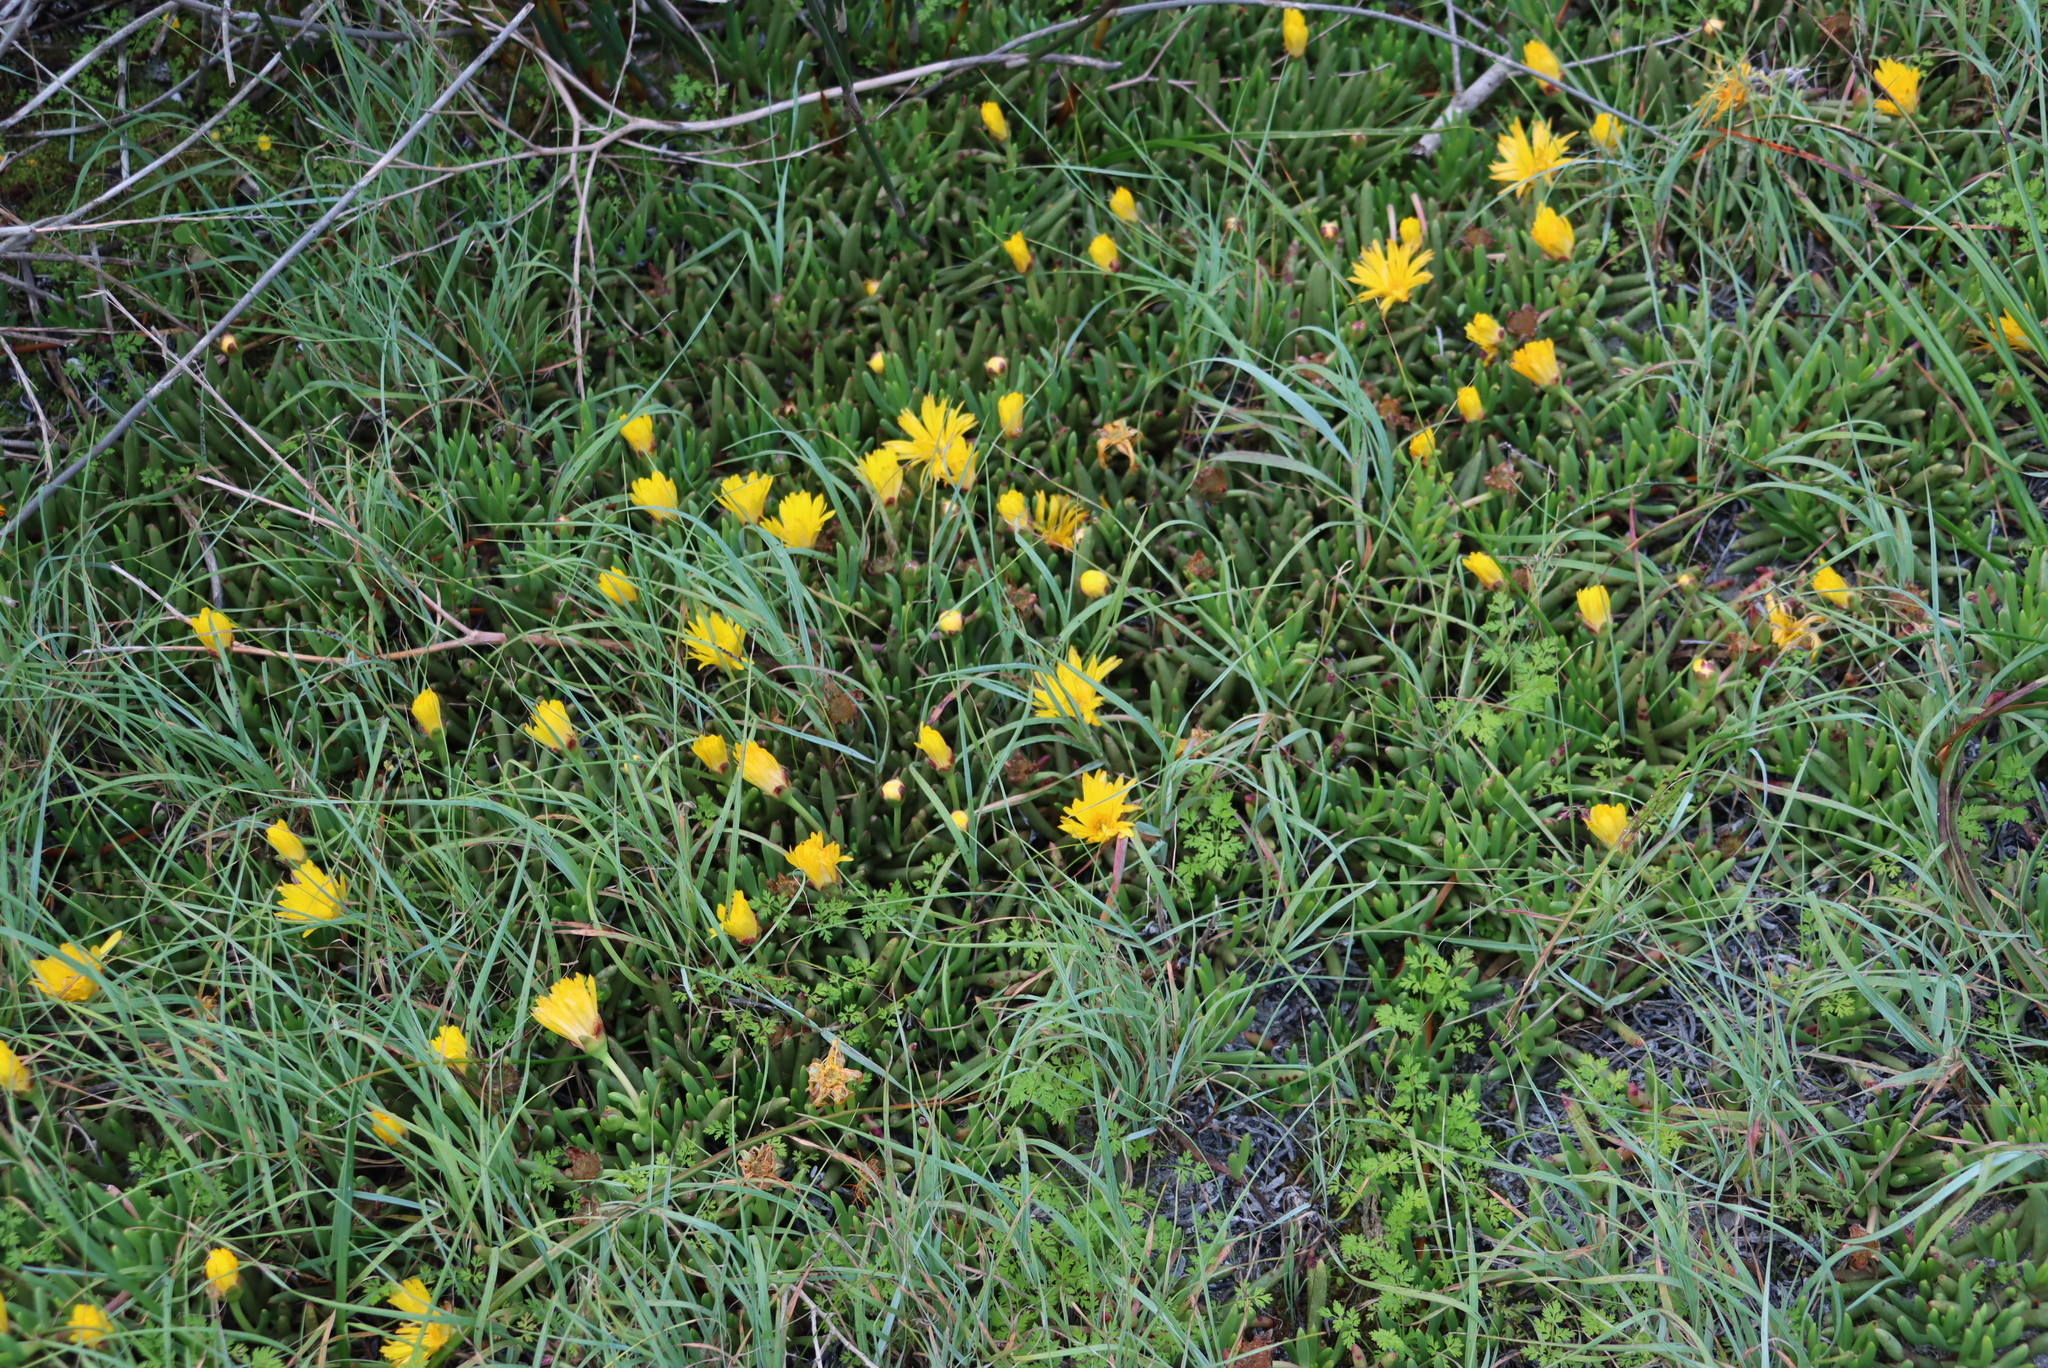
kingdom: Plantae
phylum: Tracheophyta
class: Magnoliopsida
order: Caryophyllales
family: Aizoaceae
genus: Jordaaniella
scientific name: Jordaaniella dubia
